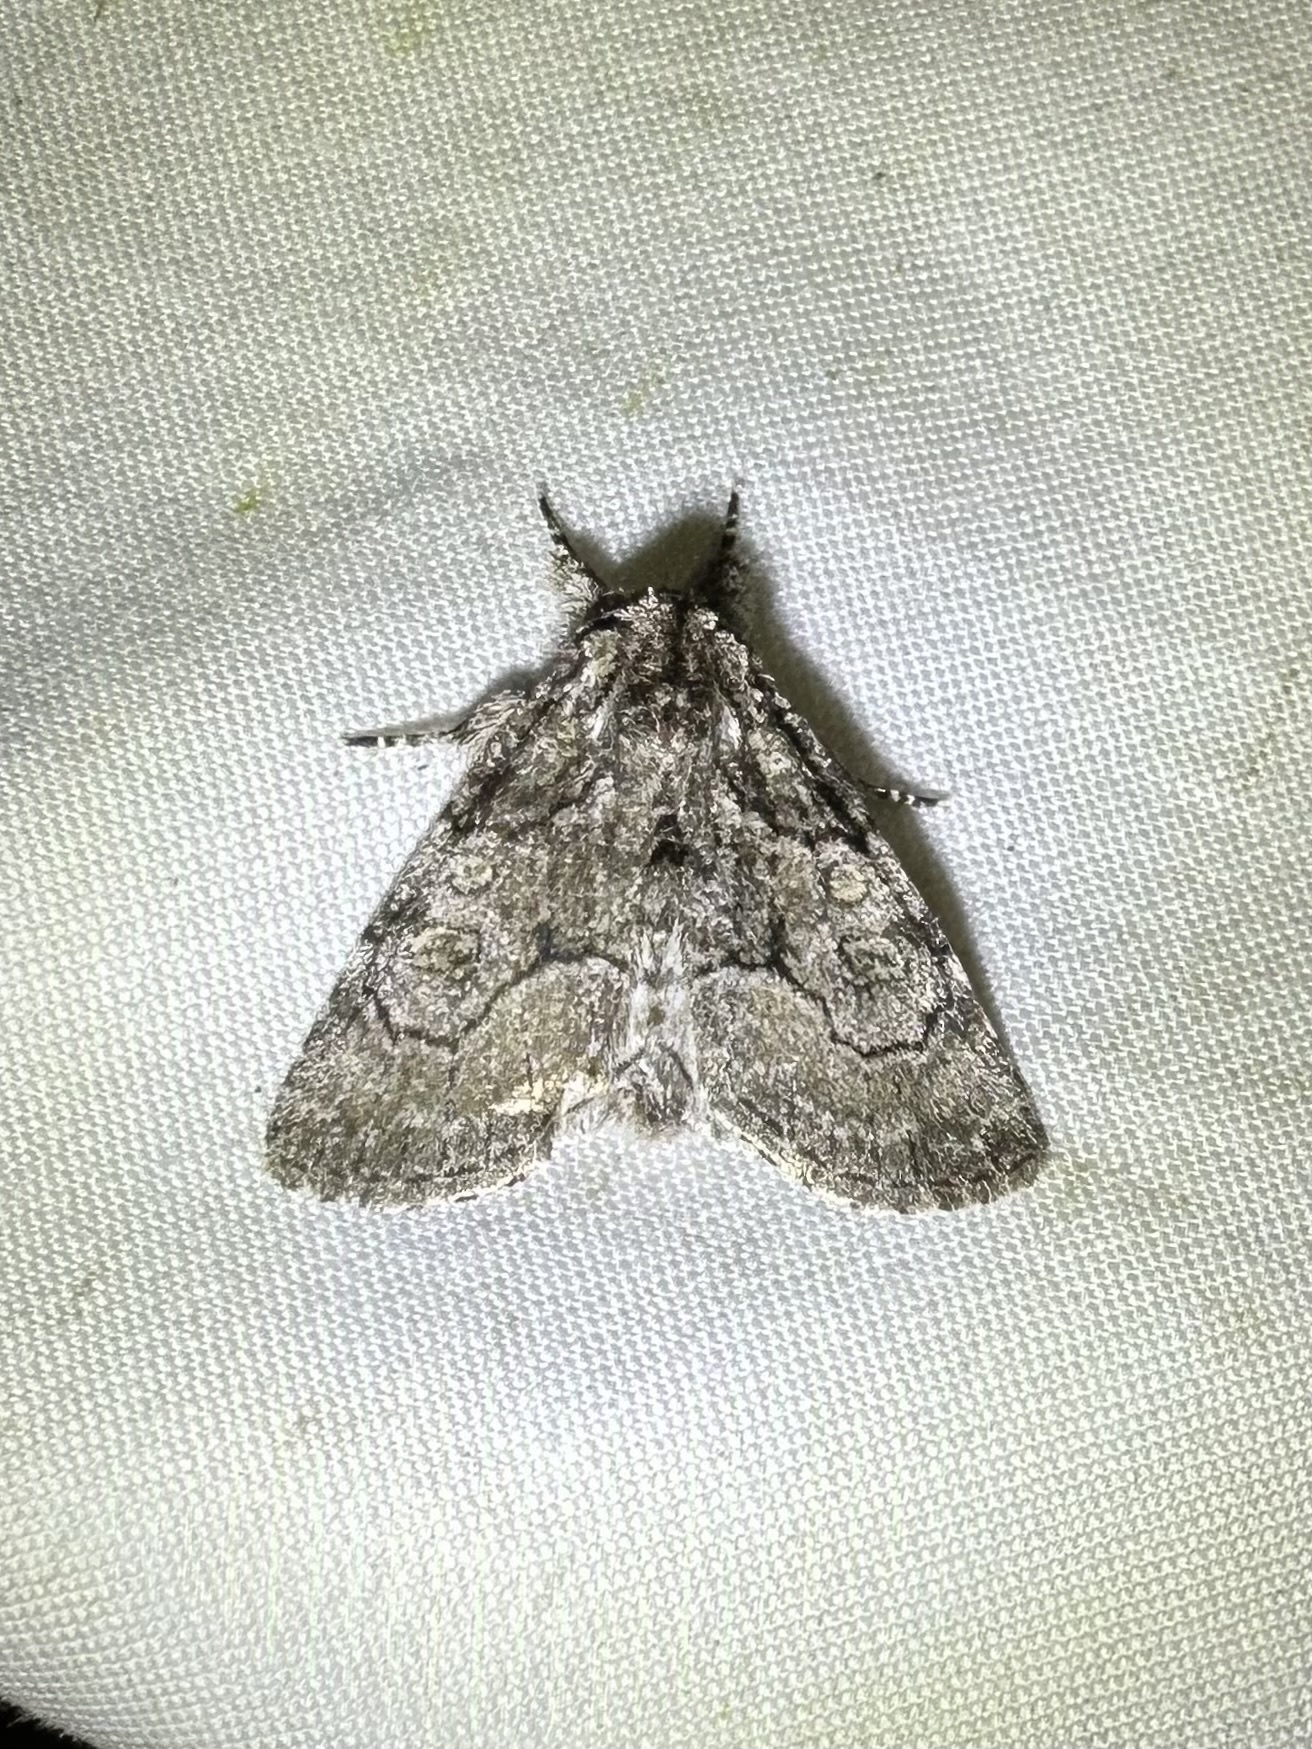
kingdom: Animalia
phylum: Arthropoda
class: Insecta
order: Lepidoptera
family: Noctuidae
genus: Raphia
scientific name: Raphia frater
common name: Brother
